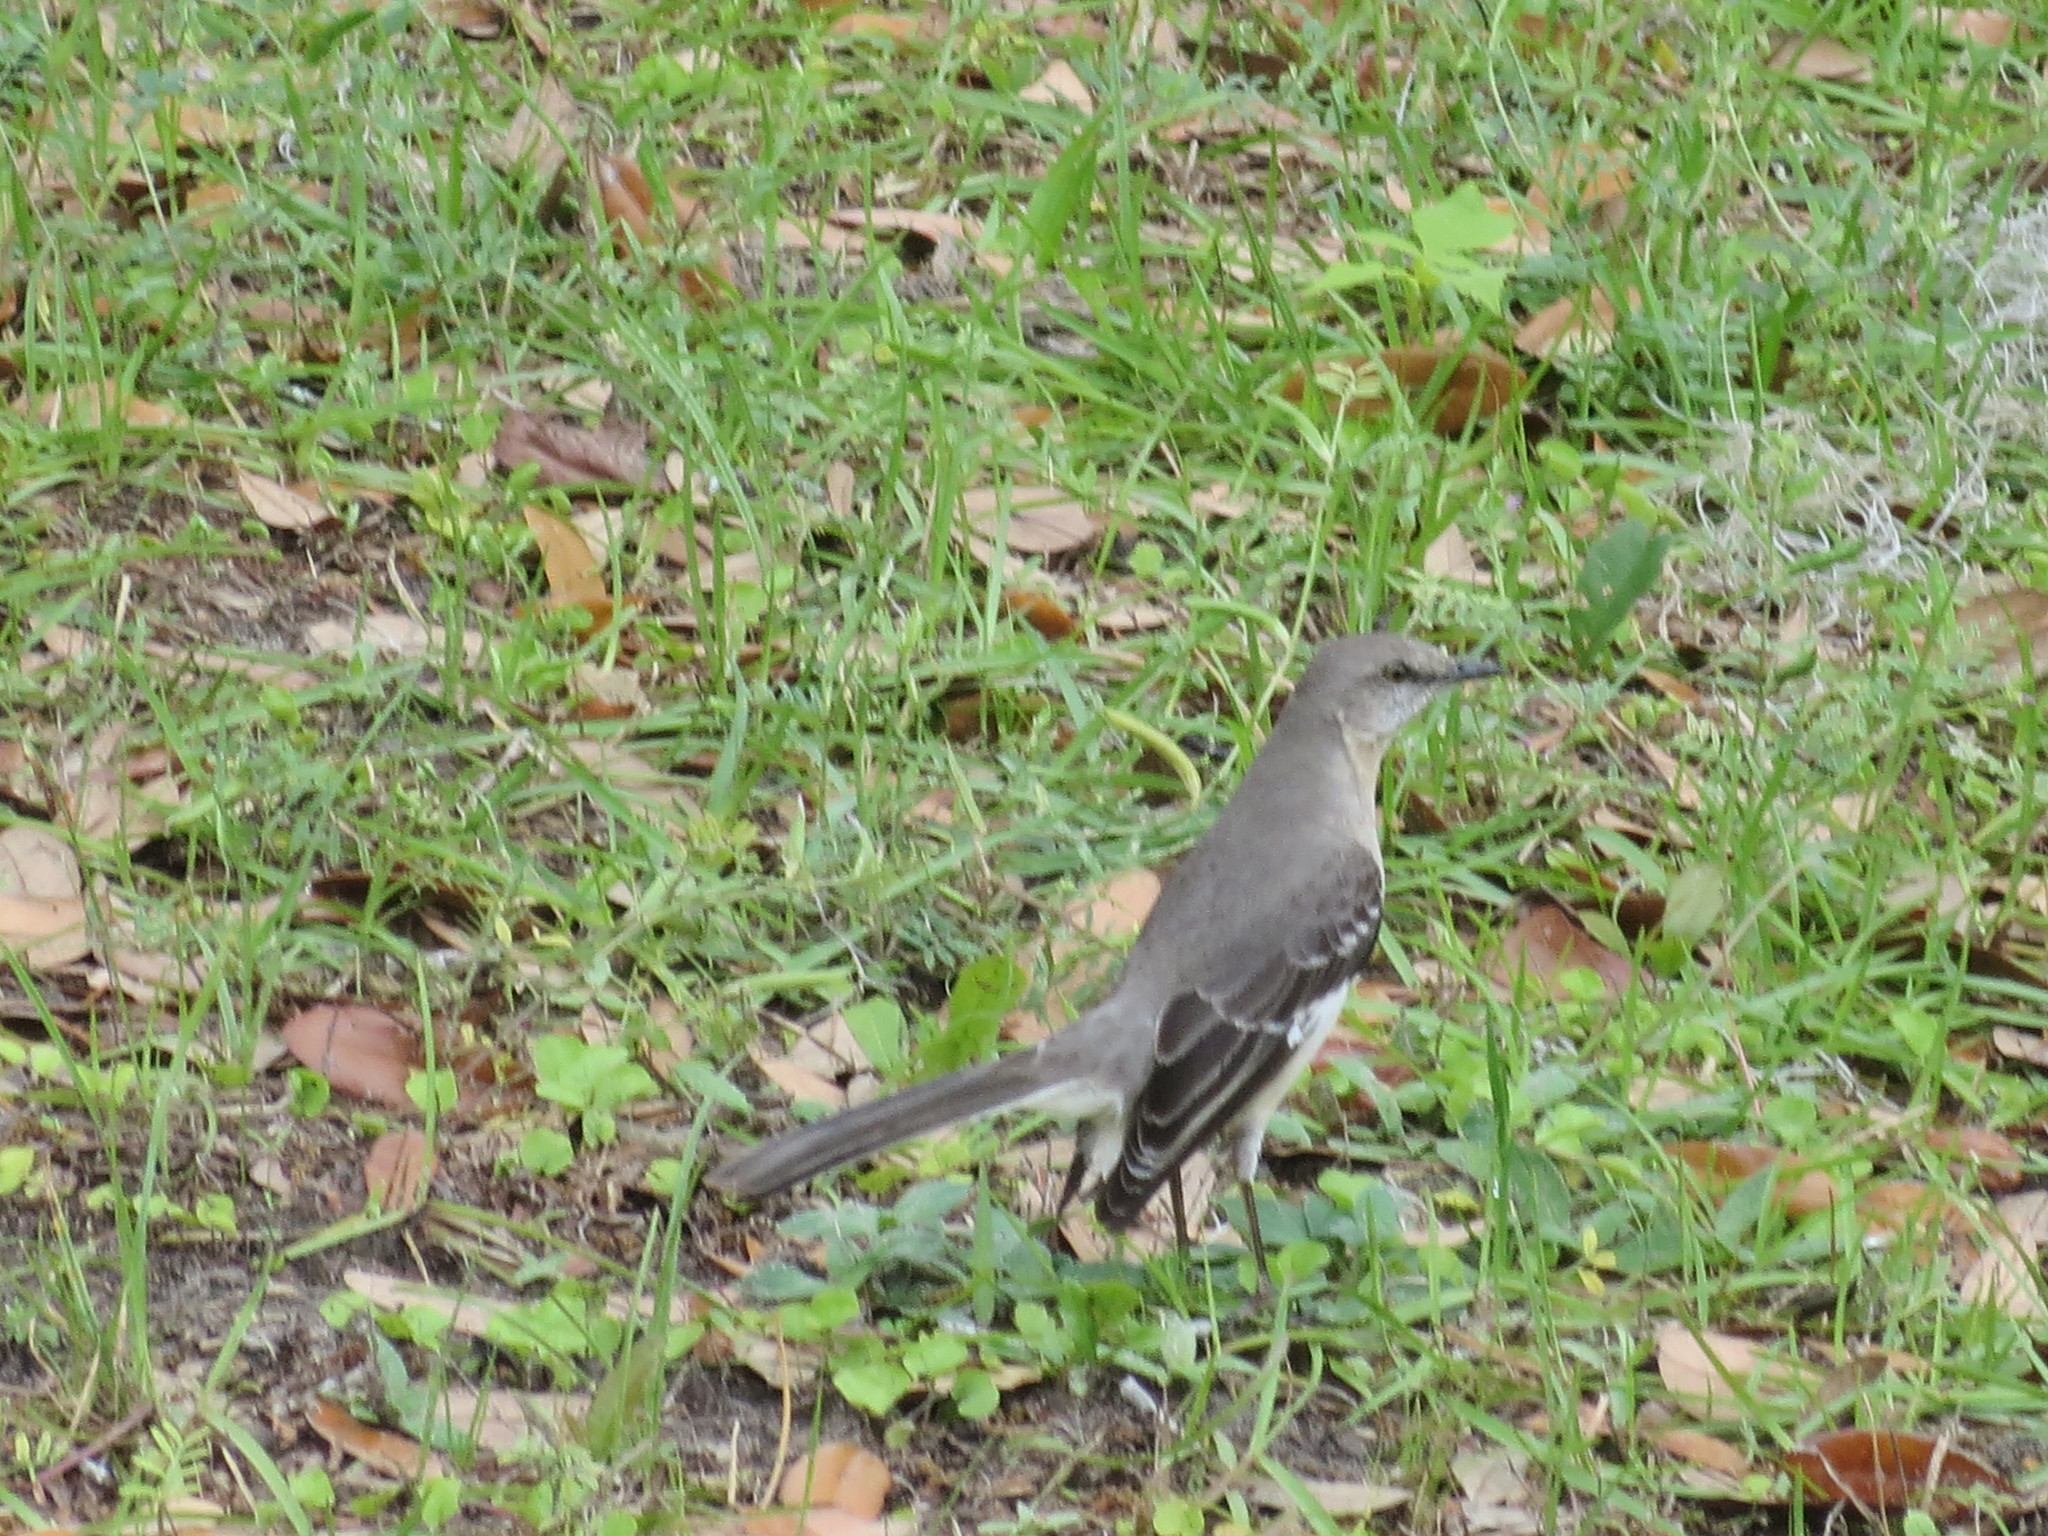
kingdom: Animalia
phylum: Chordata
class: Aves
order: Passeriformes
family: Mimidae
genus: Mimus
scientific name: Mimus polyglottos
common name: Northern mockingbird
